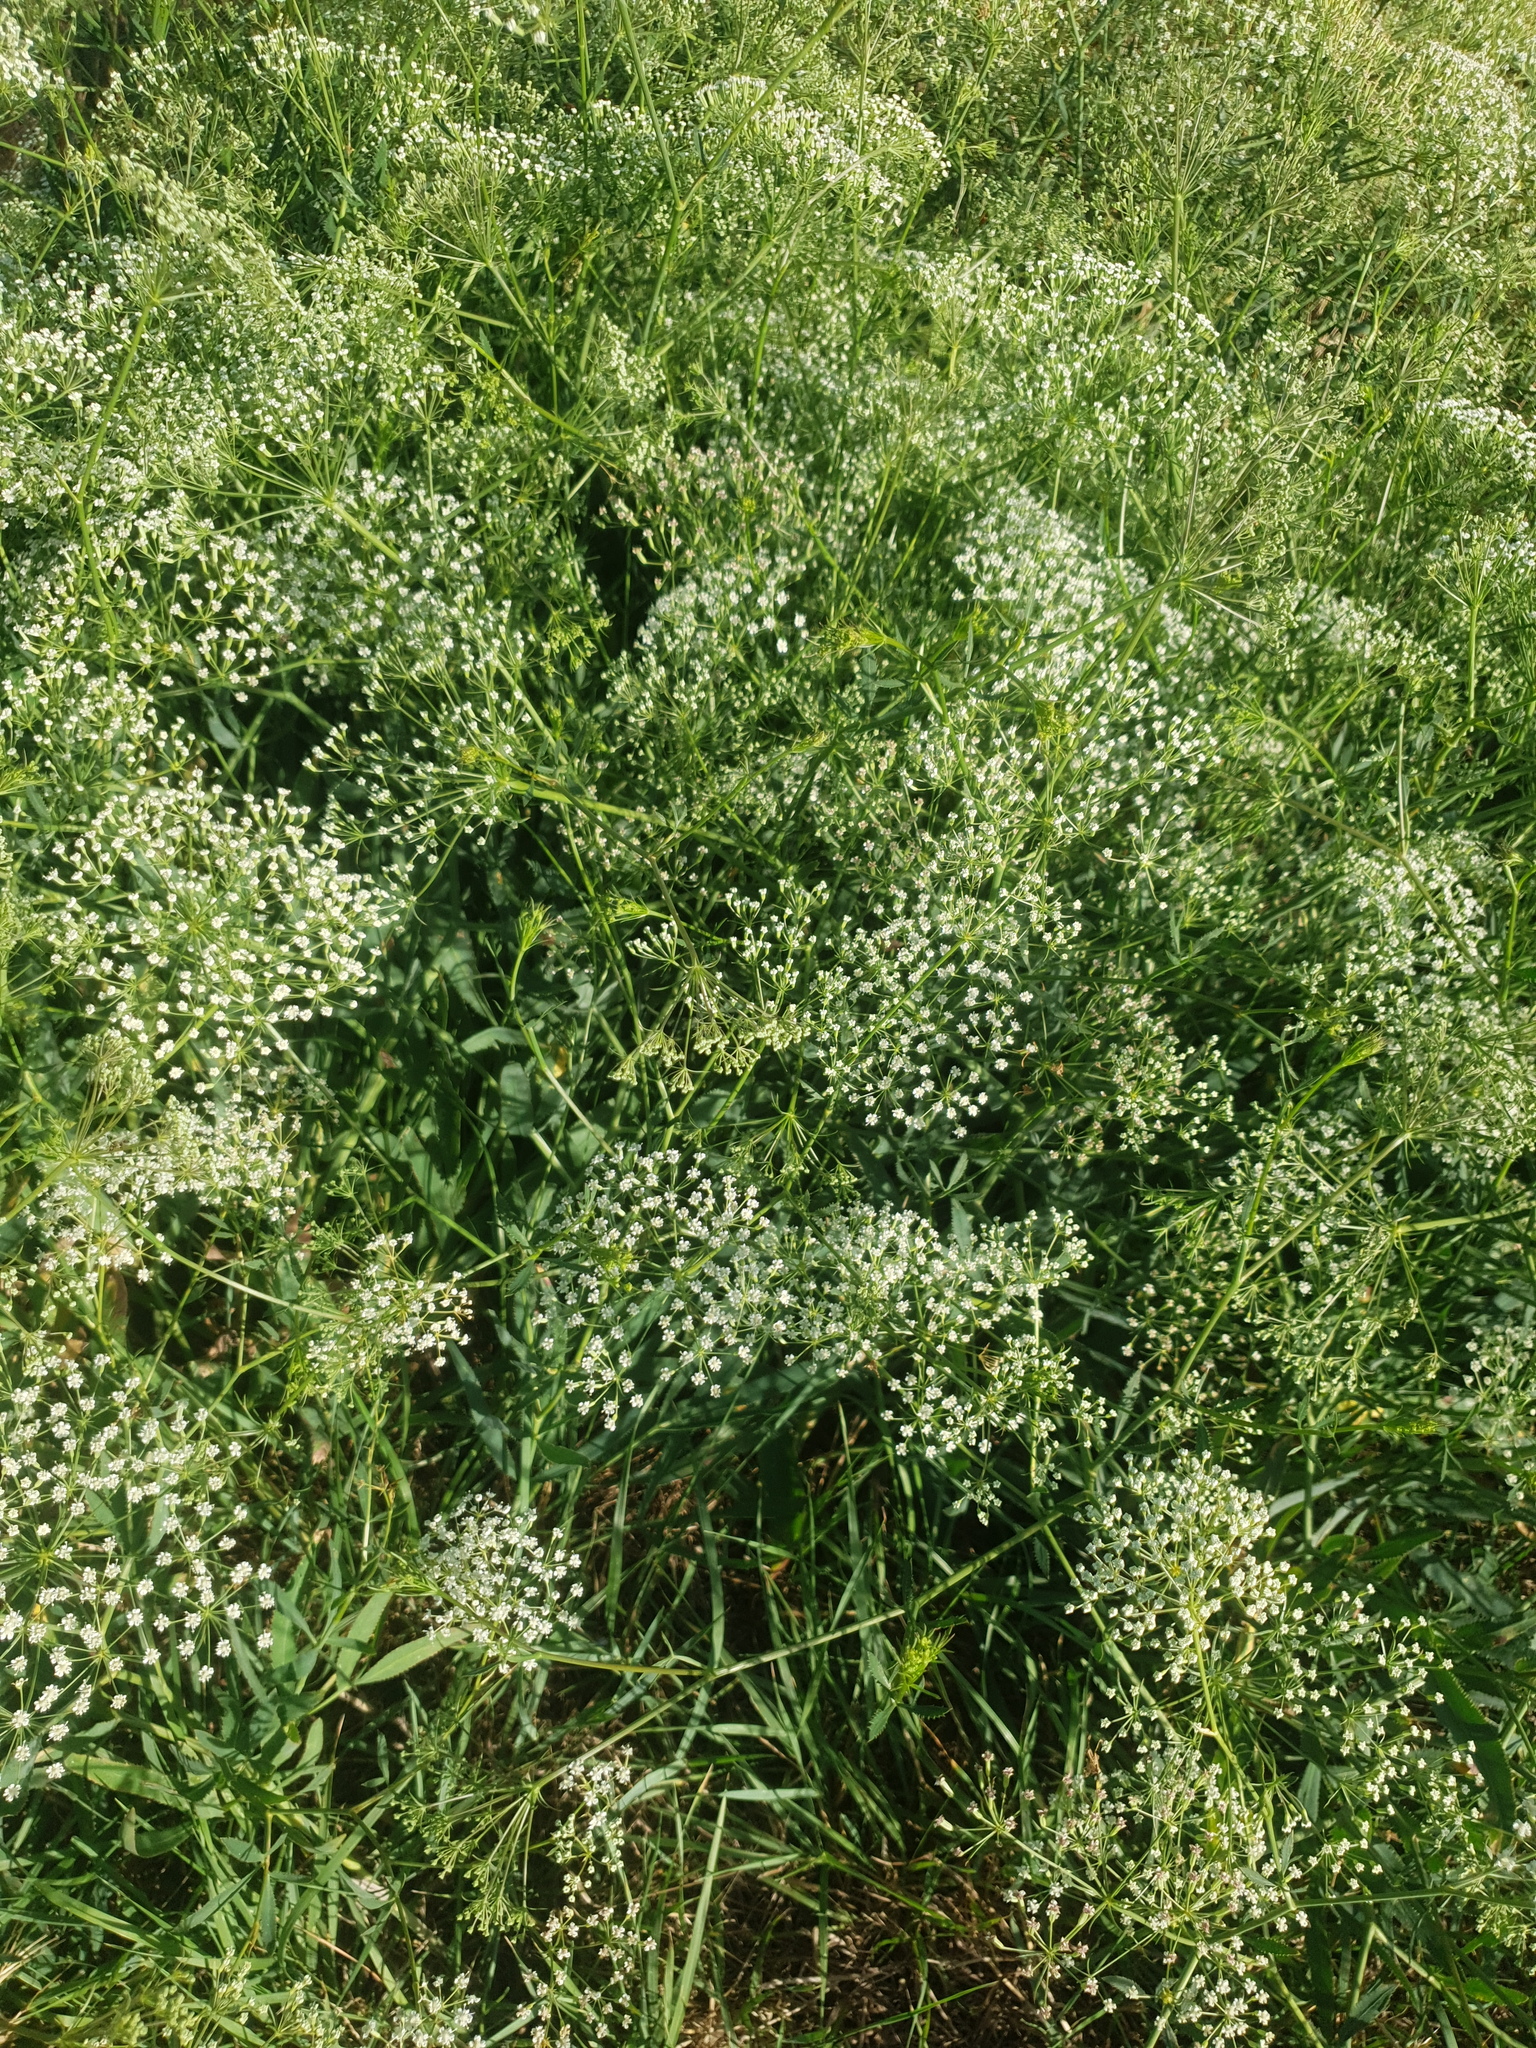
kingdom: Plantae
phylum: Tracheophyta
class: Magnoliopsida
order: Apiales
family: Apiaceae
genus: Falcaria
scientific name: Falcaria vulgaris
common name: Longleaf
